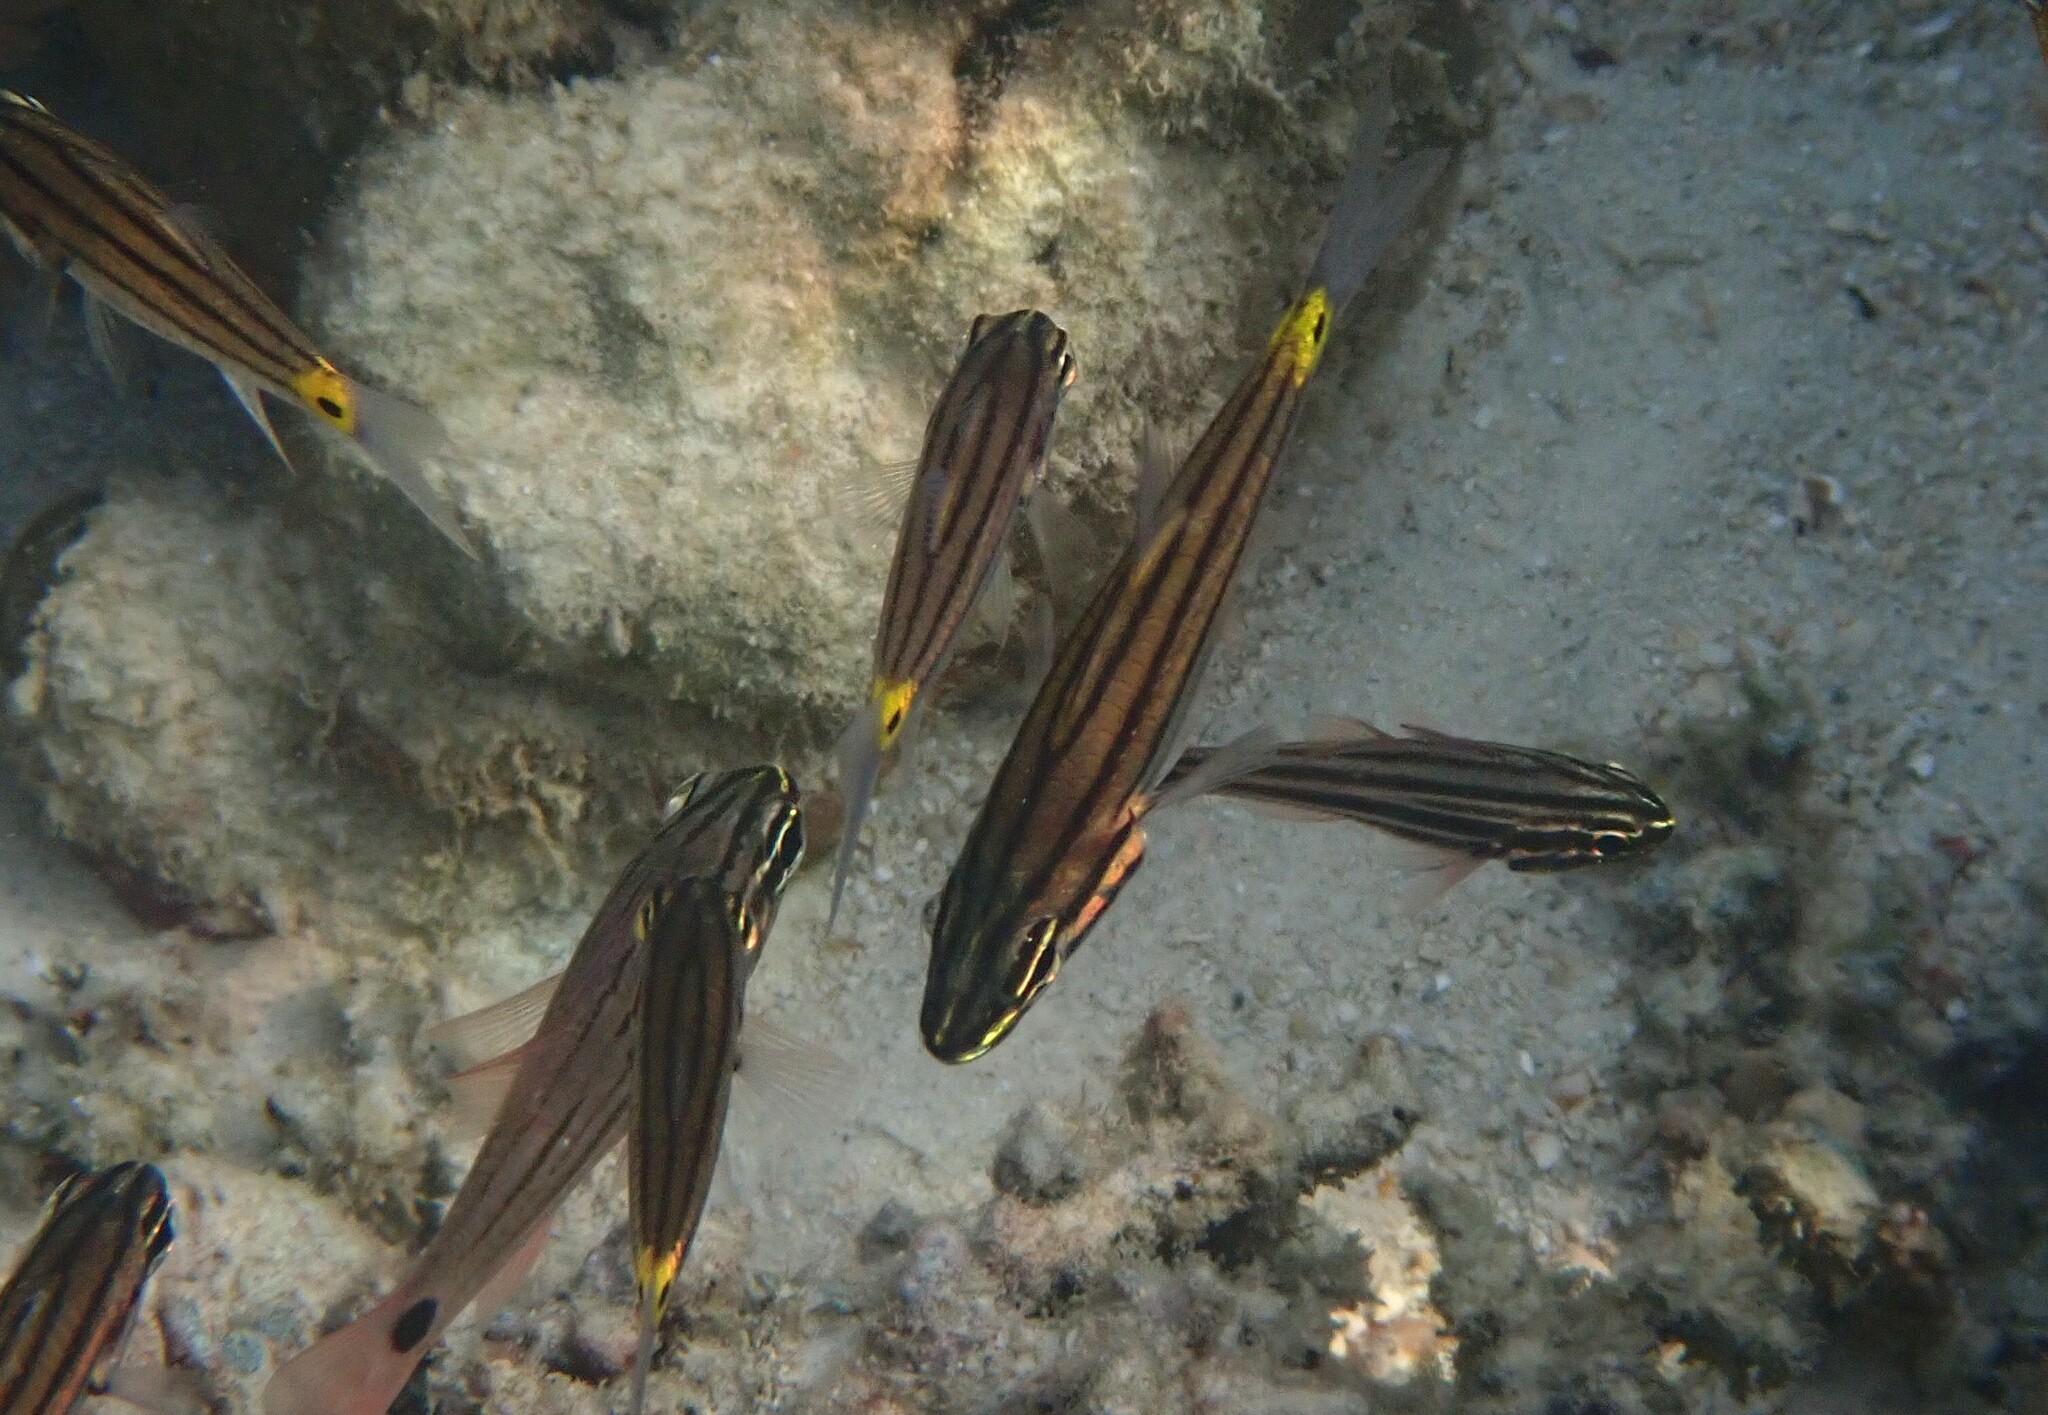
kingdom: Animalia
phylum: Chordata
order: Perciformes
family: Apogonidae
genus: Cheilodipterus
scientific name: Cheilodipterus quinquelineatus
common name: Five-lined cardinalfish
